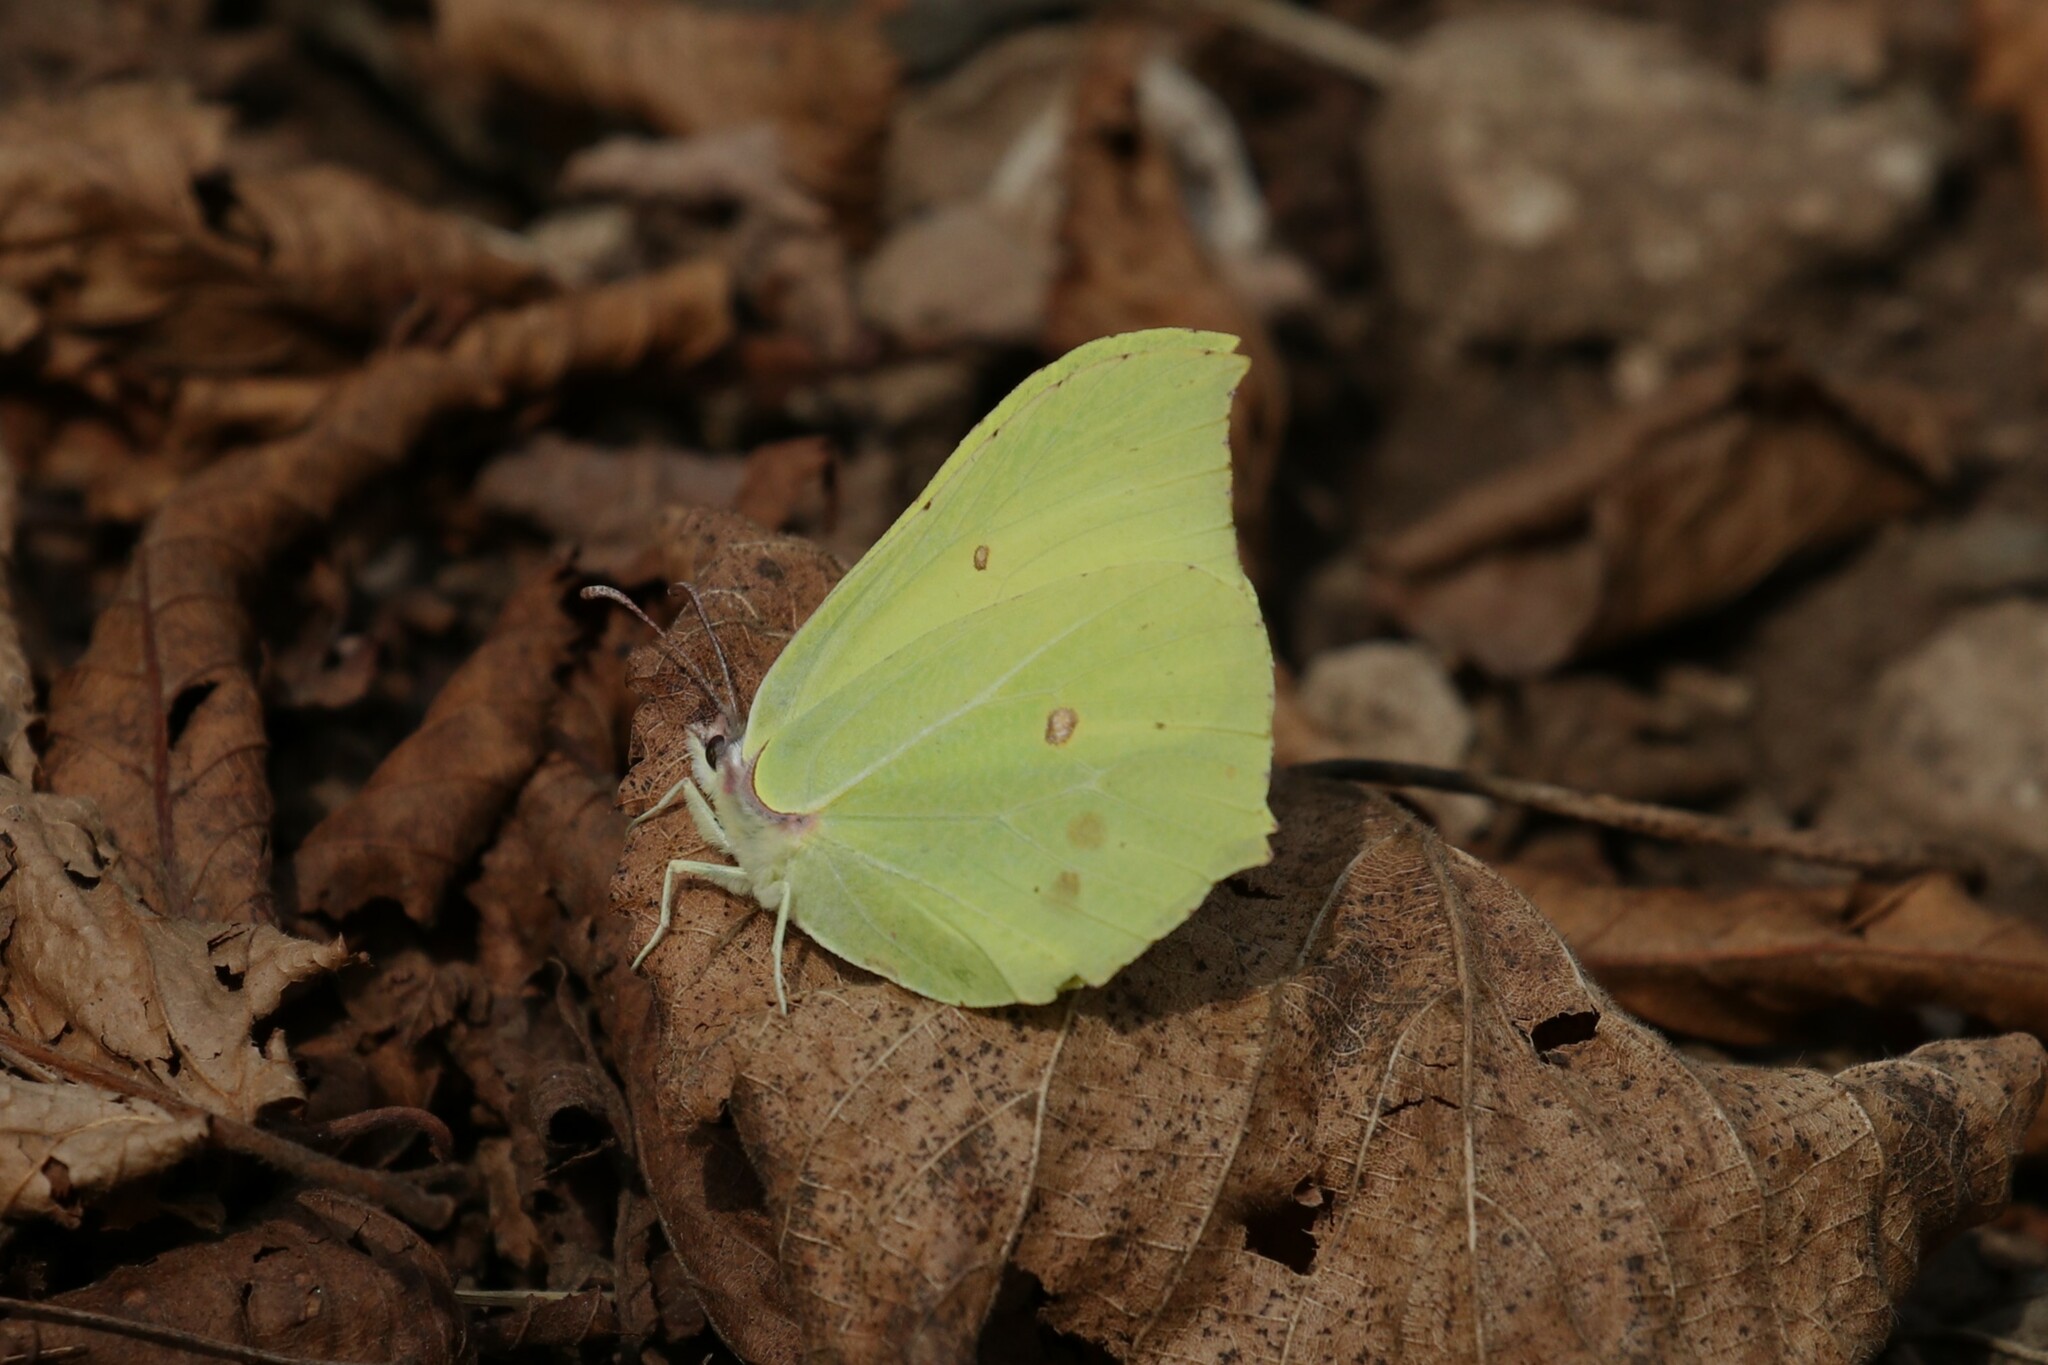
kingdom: Animalia
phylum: Arthropoda
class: Insecta
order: Lepidoptera
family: Pieridae
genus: Gonepteryx
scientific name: Gonepteryx rhamni
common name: Brimstone
